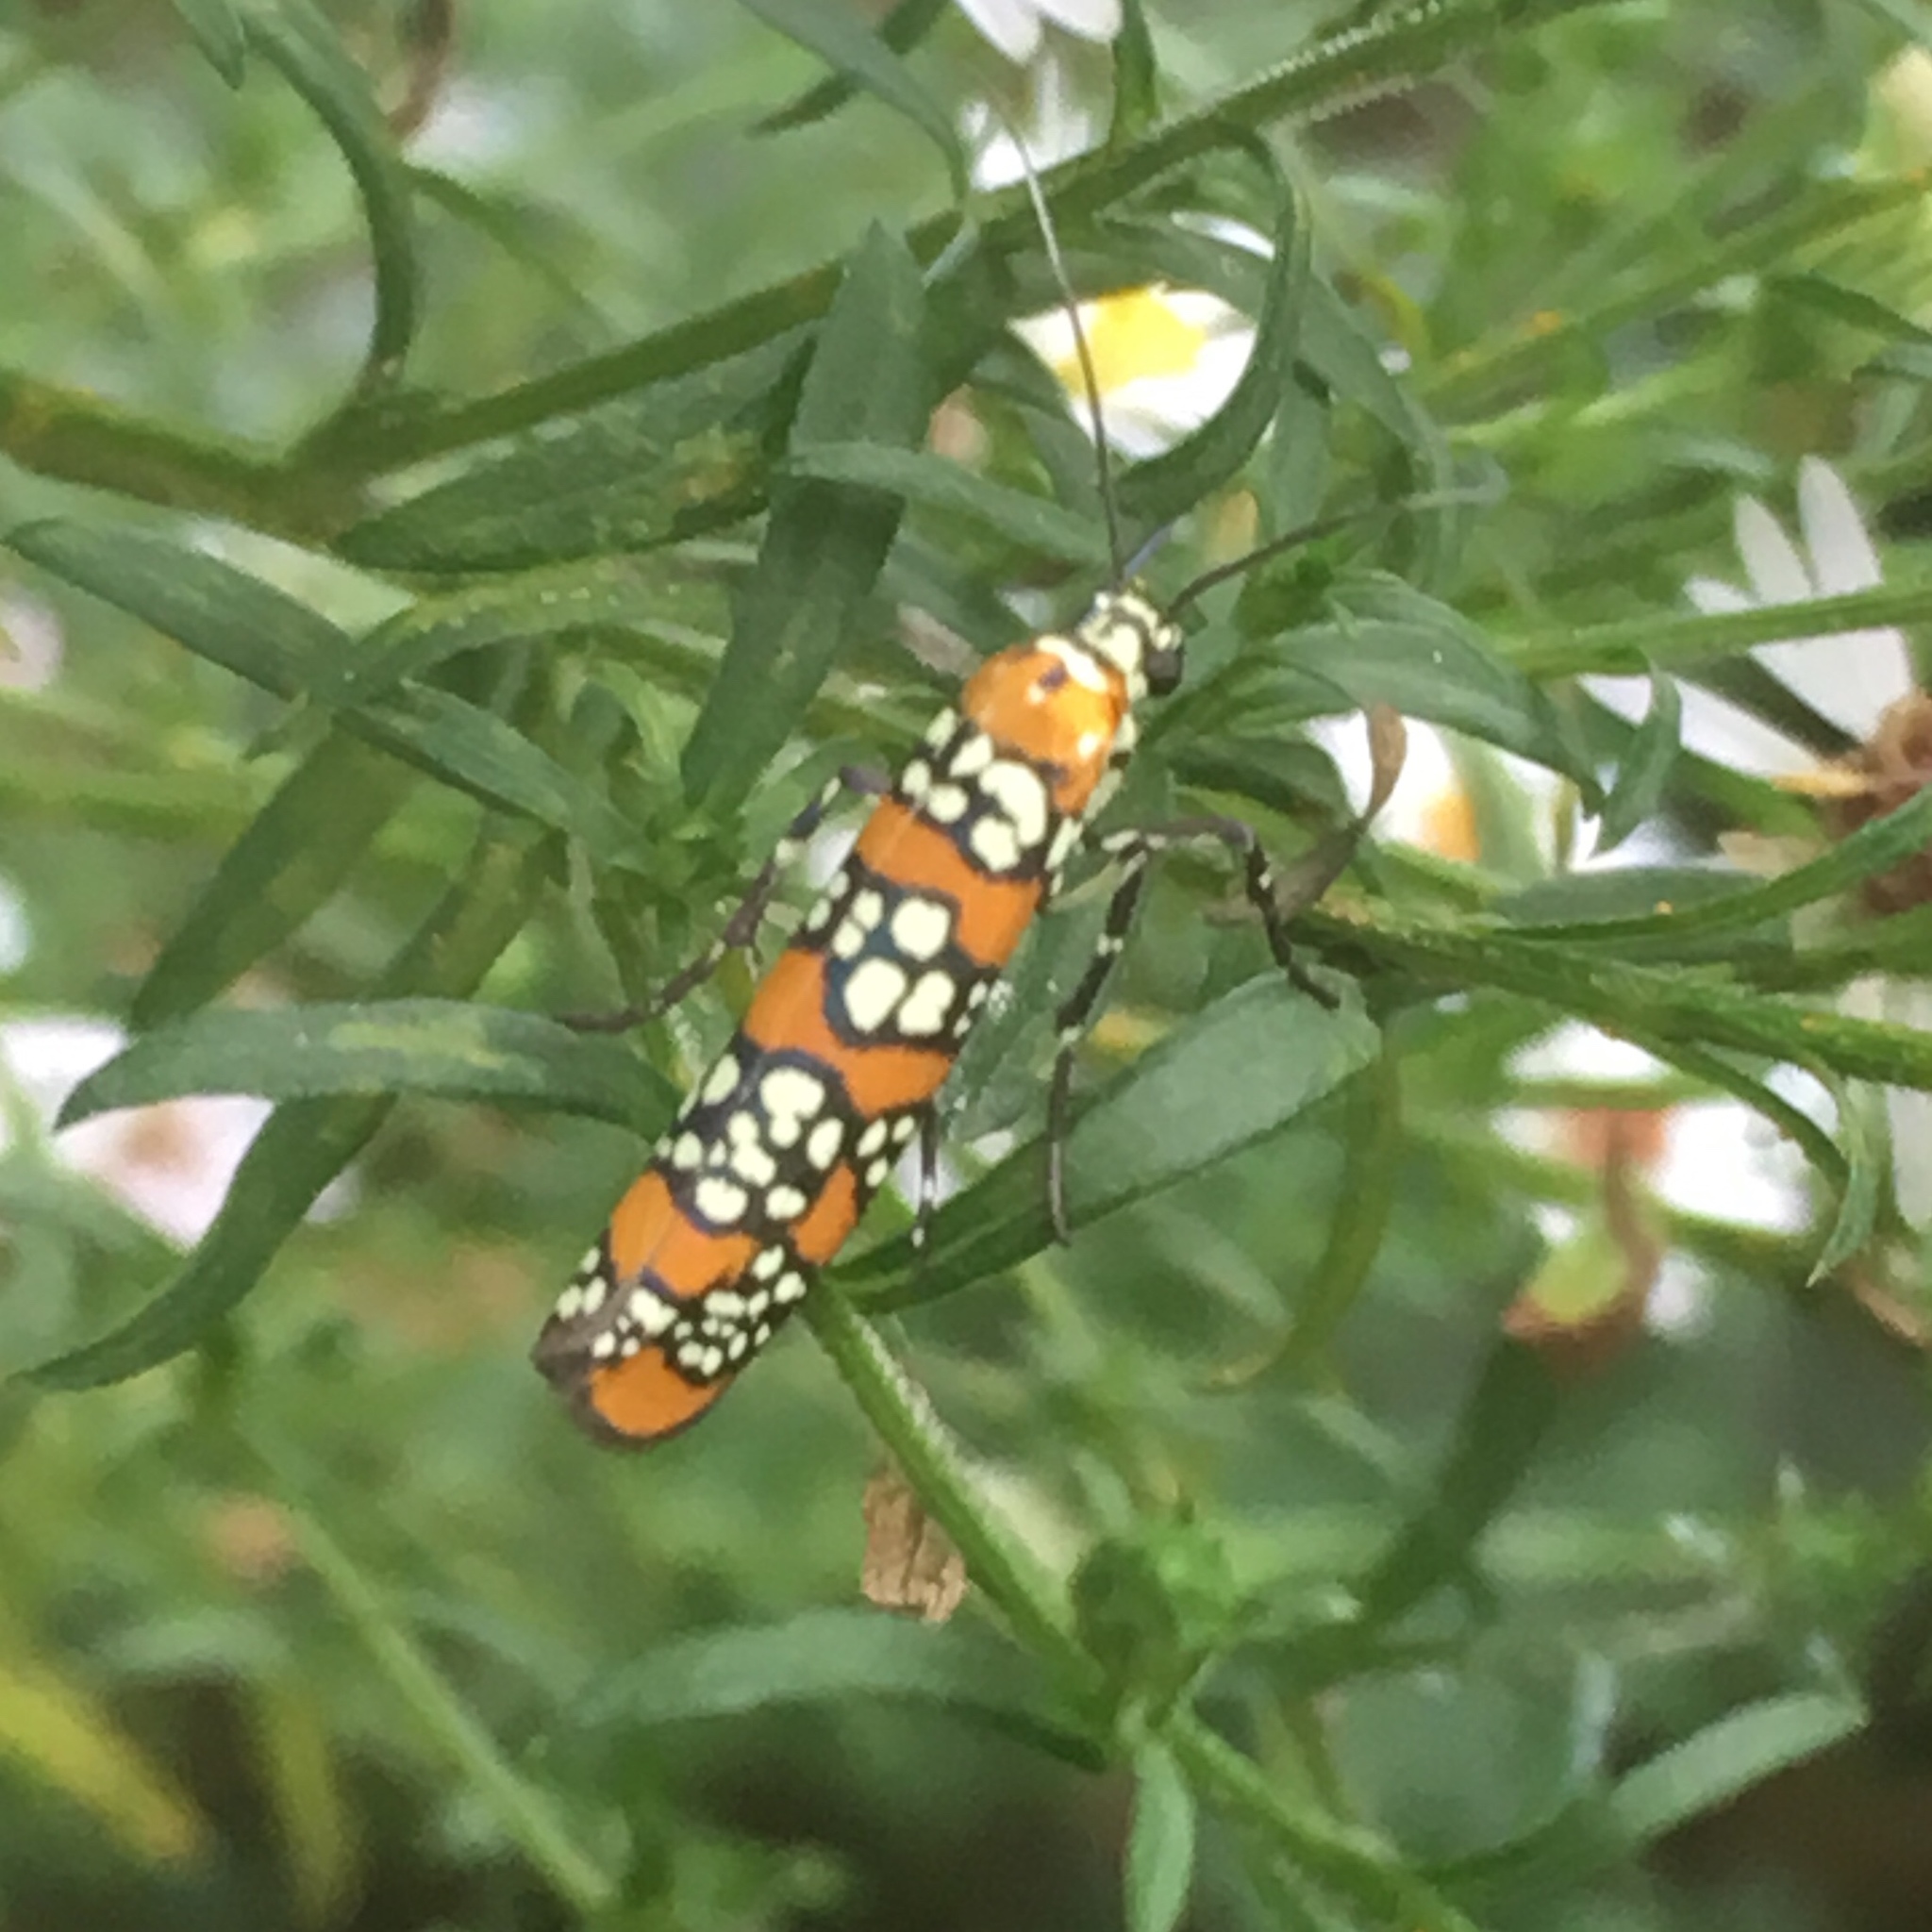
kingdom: Animalia
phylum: Arthropoda
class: Insecta
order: Lepidoptera
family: Attevidae
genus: Atteva
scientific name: Atteva punctella
